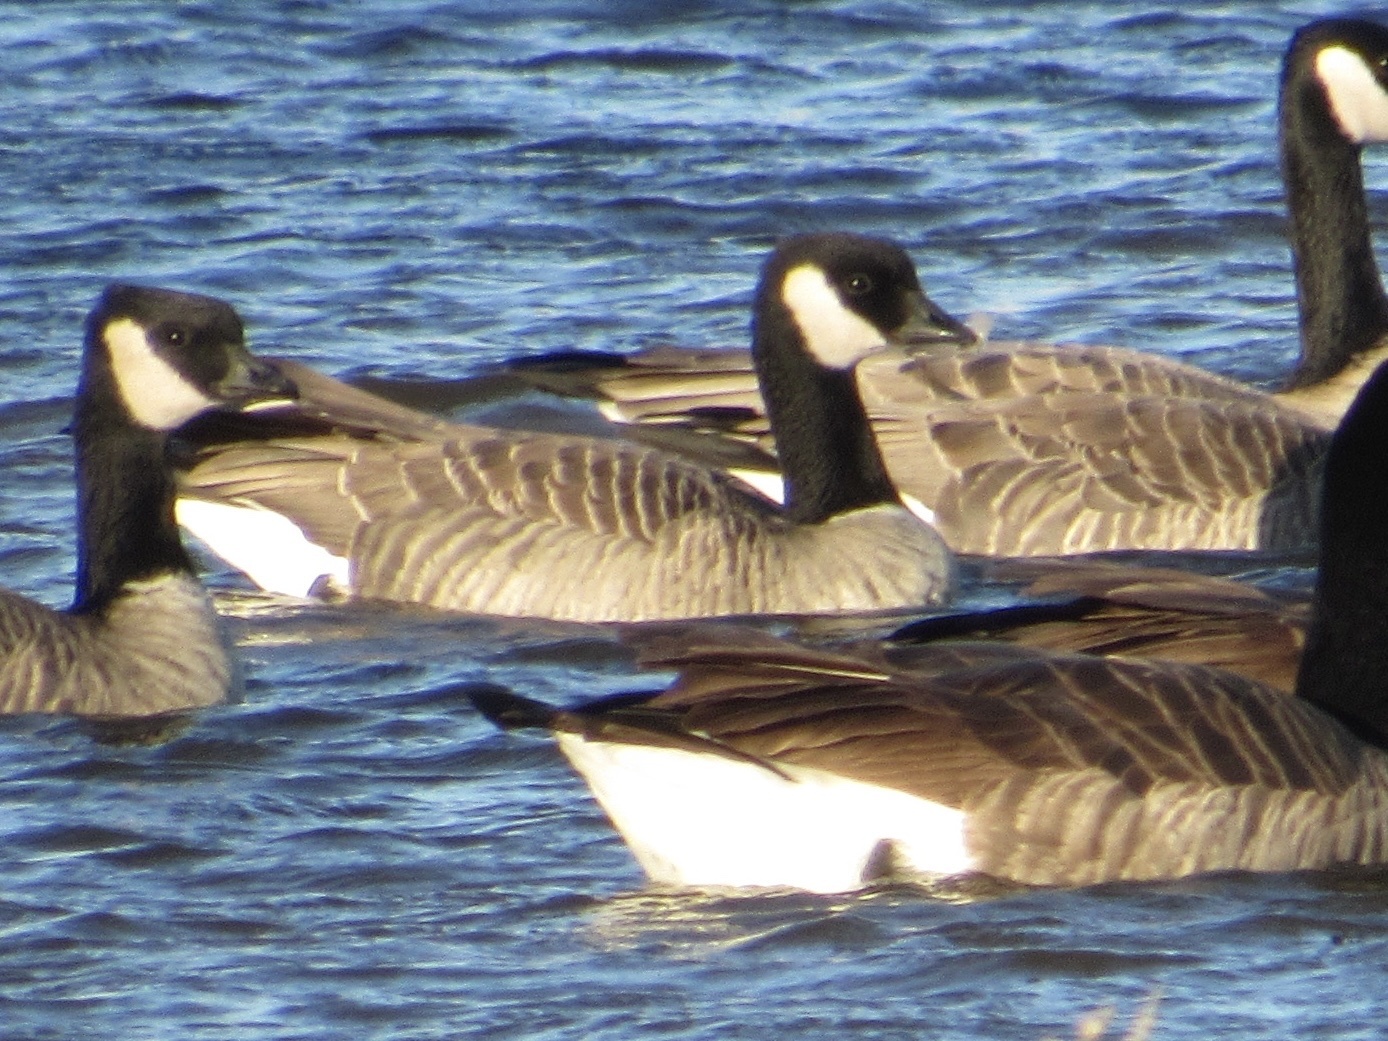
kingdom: Animalia
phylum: Chordata
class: Aves
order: Anseriformes
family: Anatidae
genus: Branta
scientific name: Branta hutchinsii
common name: Cackling goose
